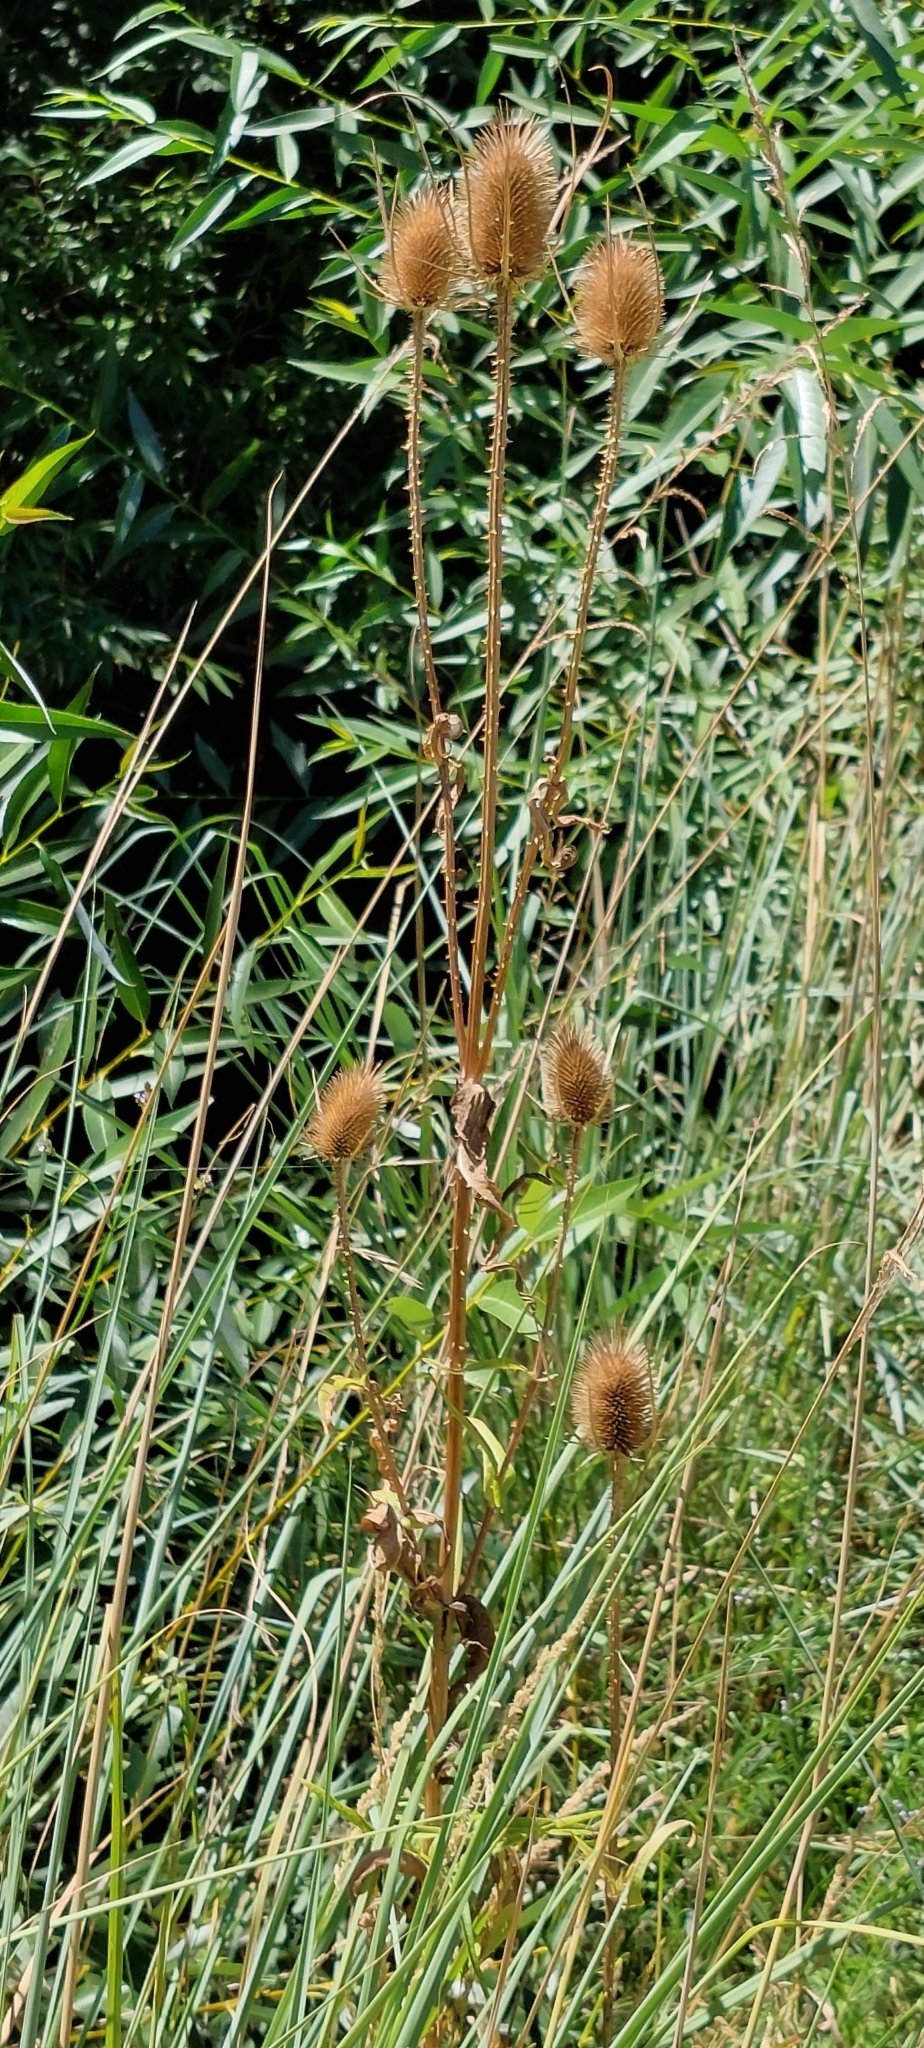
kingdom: Plantae
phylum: Tracheophyta
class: Magnoliopsida
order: Dipsacales
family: Caprifoliaceae
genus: Dipsacus
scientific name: Dipsacus fullonum
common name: Teasel
